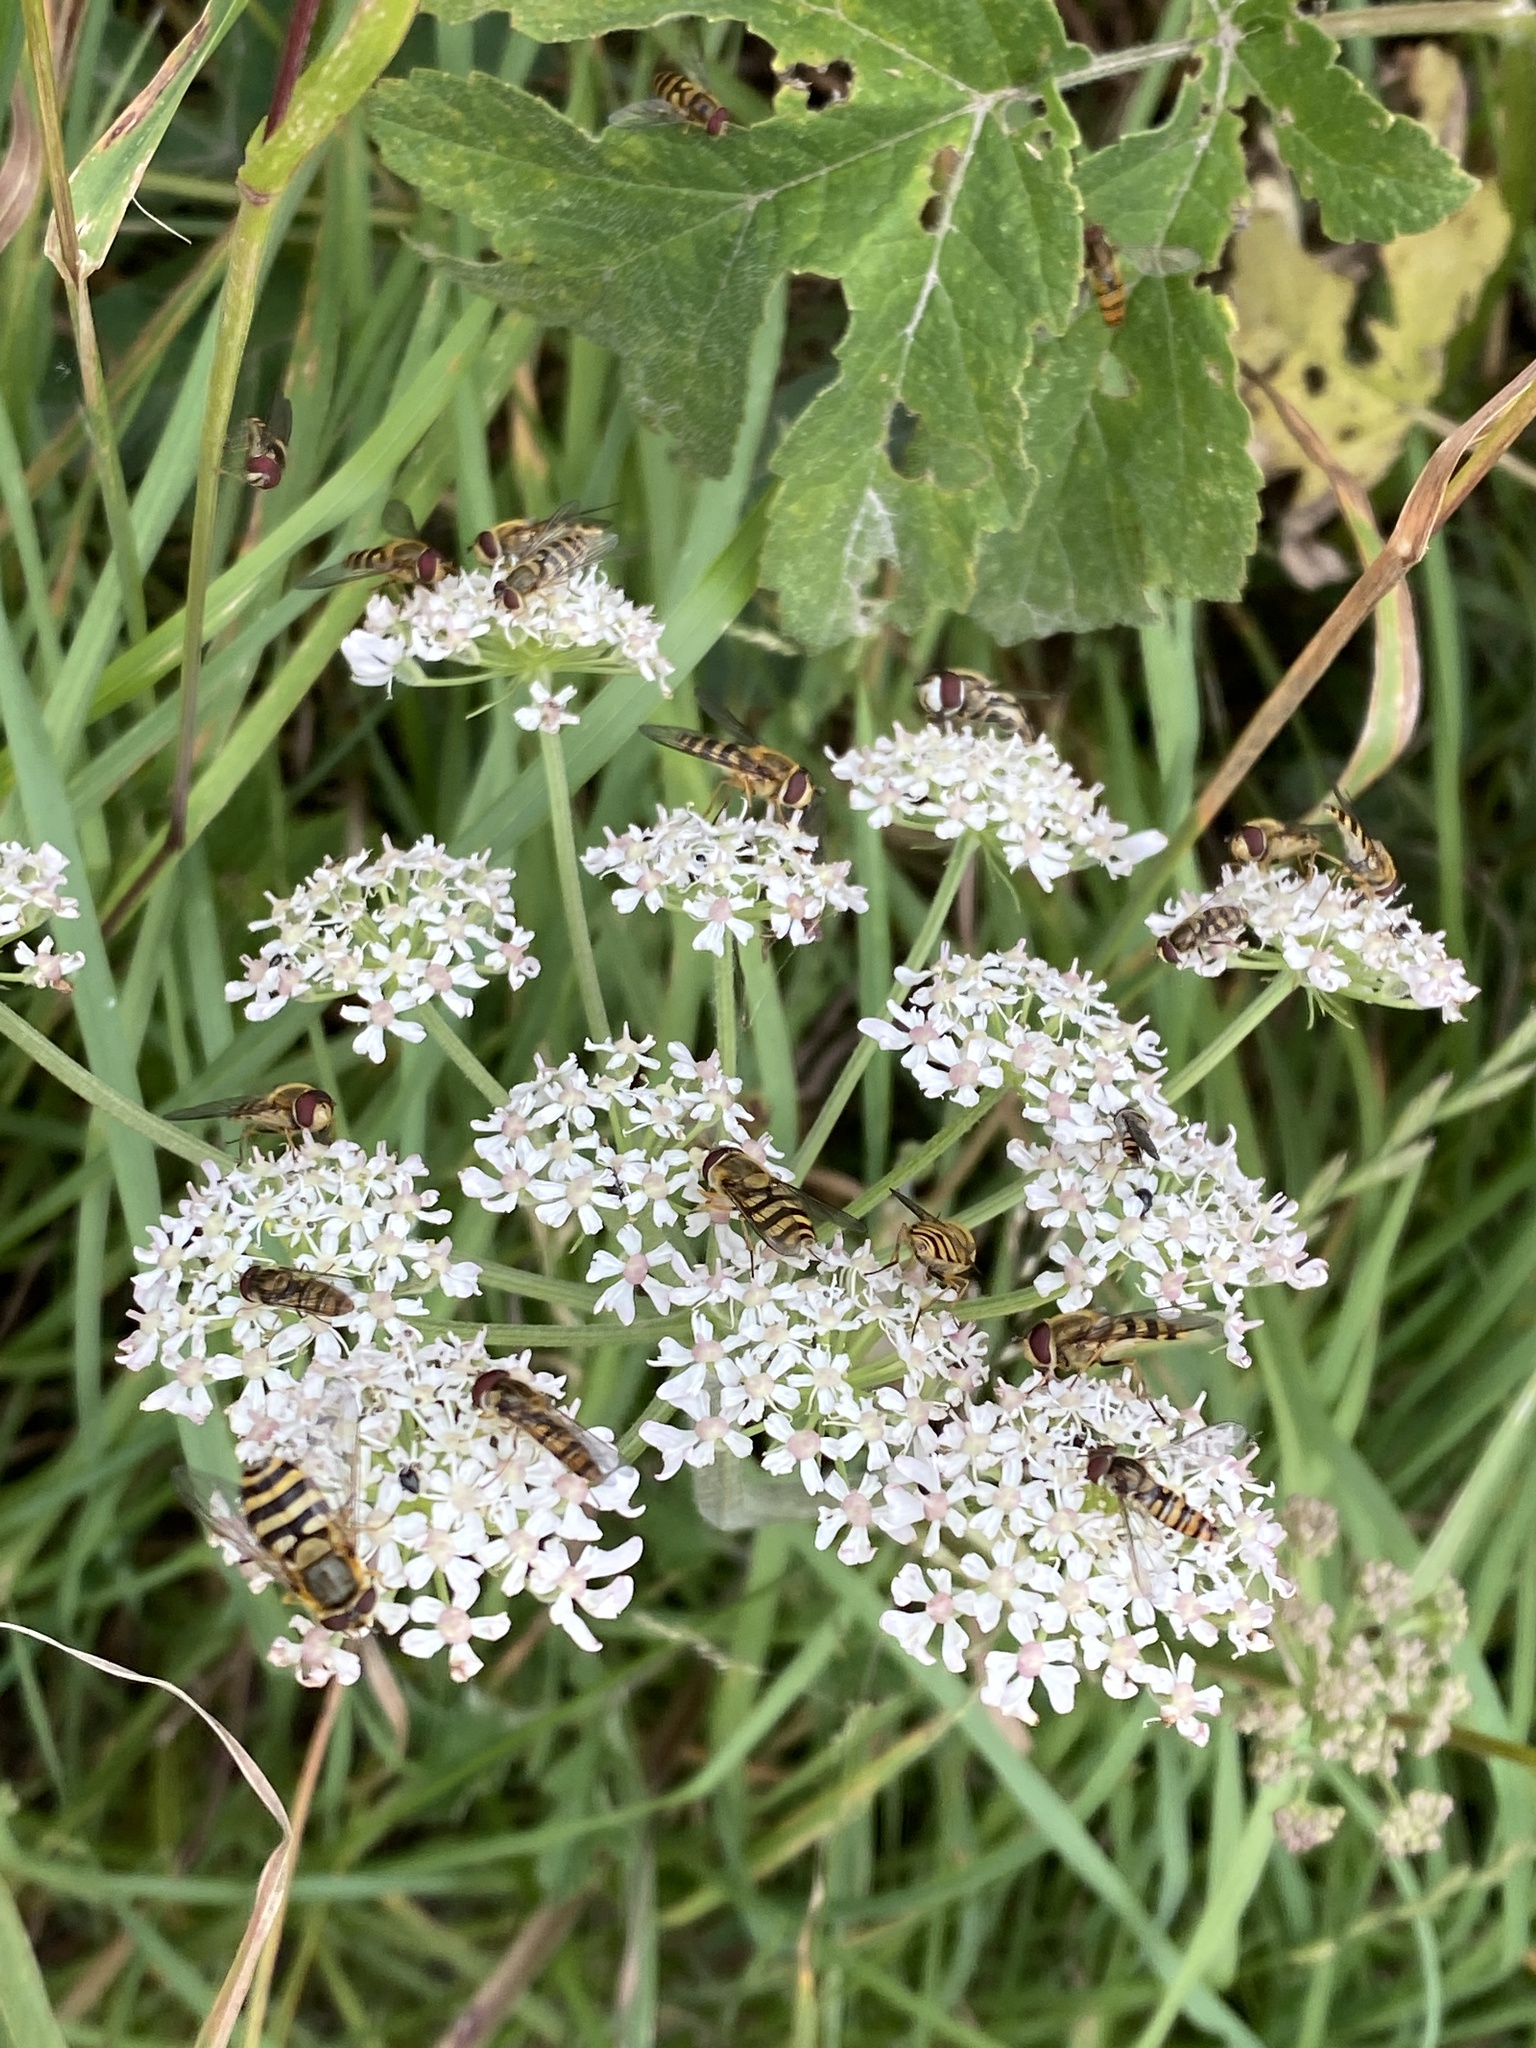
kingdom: Plantae
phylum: Tracheophyta
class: Magnoliopsida
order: Apiales
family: Apiaceae
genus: Heracleum
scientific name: Heracleum sphondylium
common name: Hogweed
